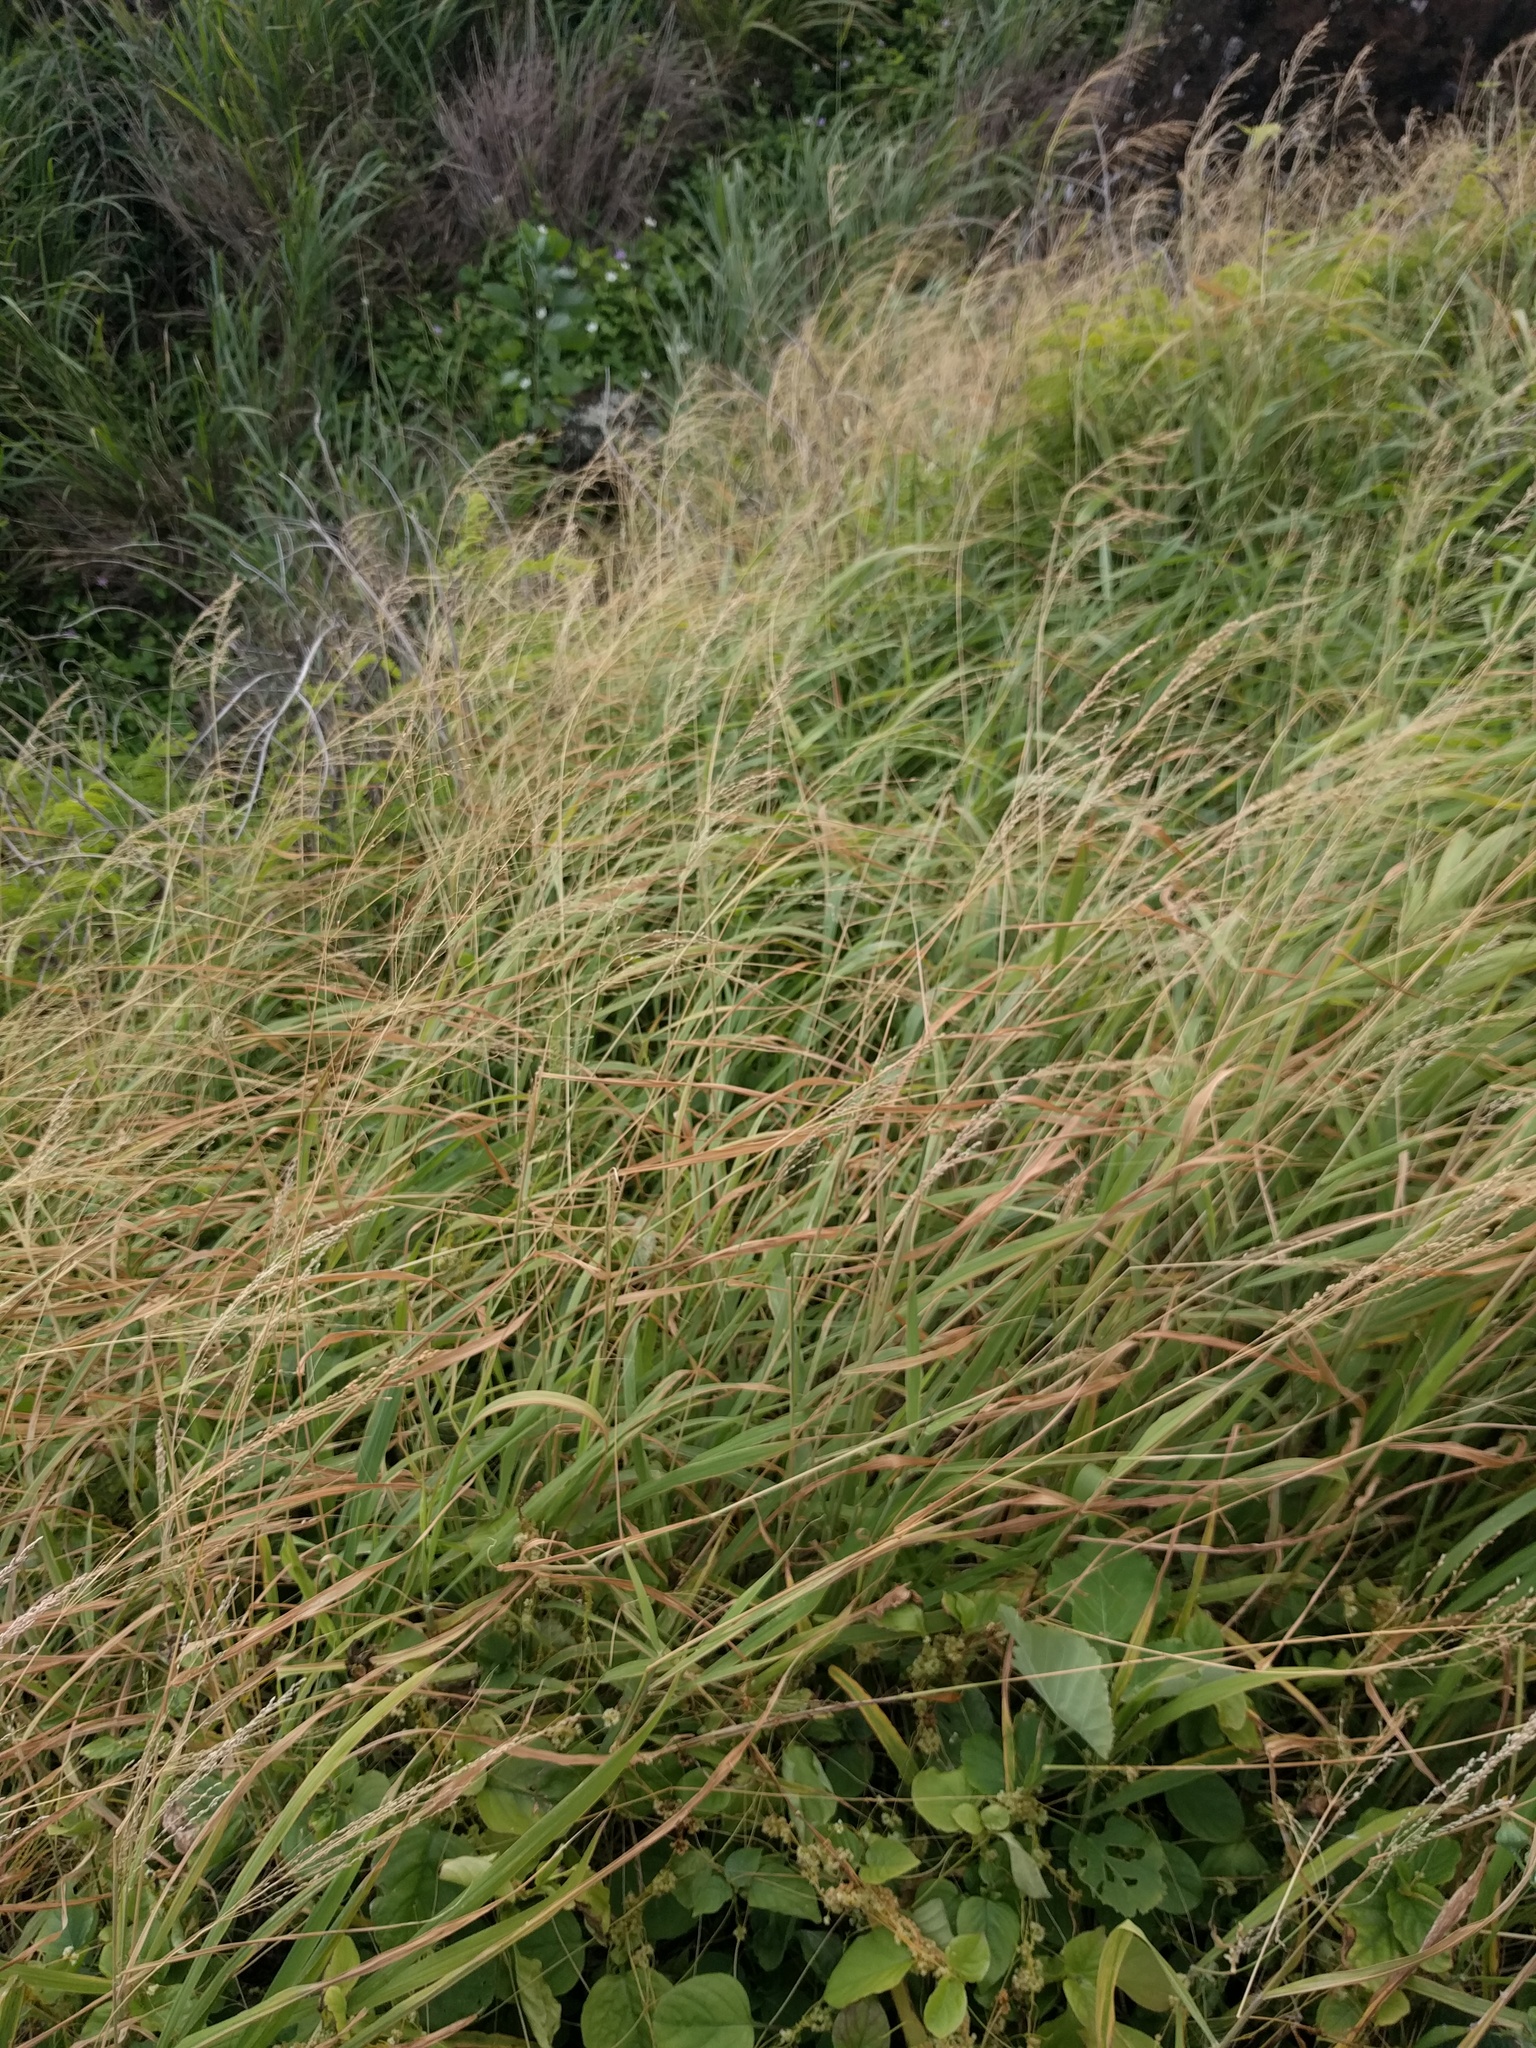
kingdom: Plantae
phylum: Tracheophyta
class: Liliopsida
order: Poales
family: Poaceae
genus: Megathyrsus
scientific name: Megathyrsus maximus
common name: Guineagrass
